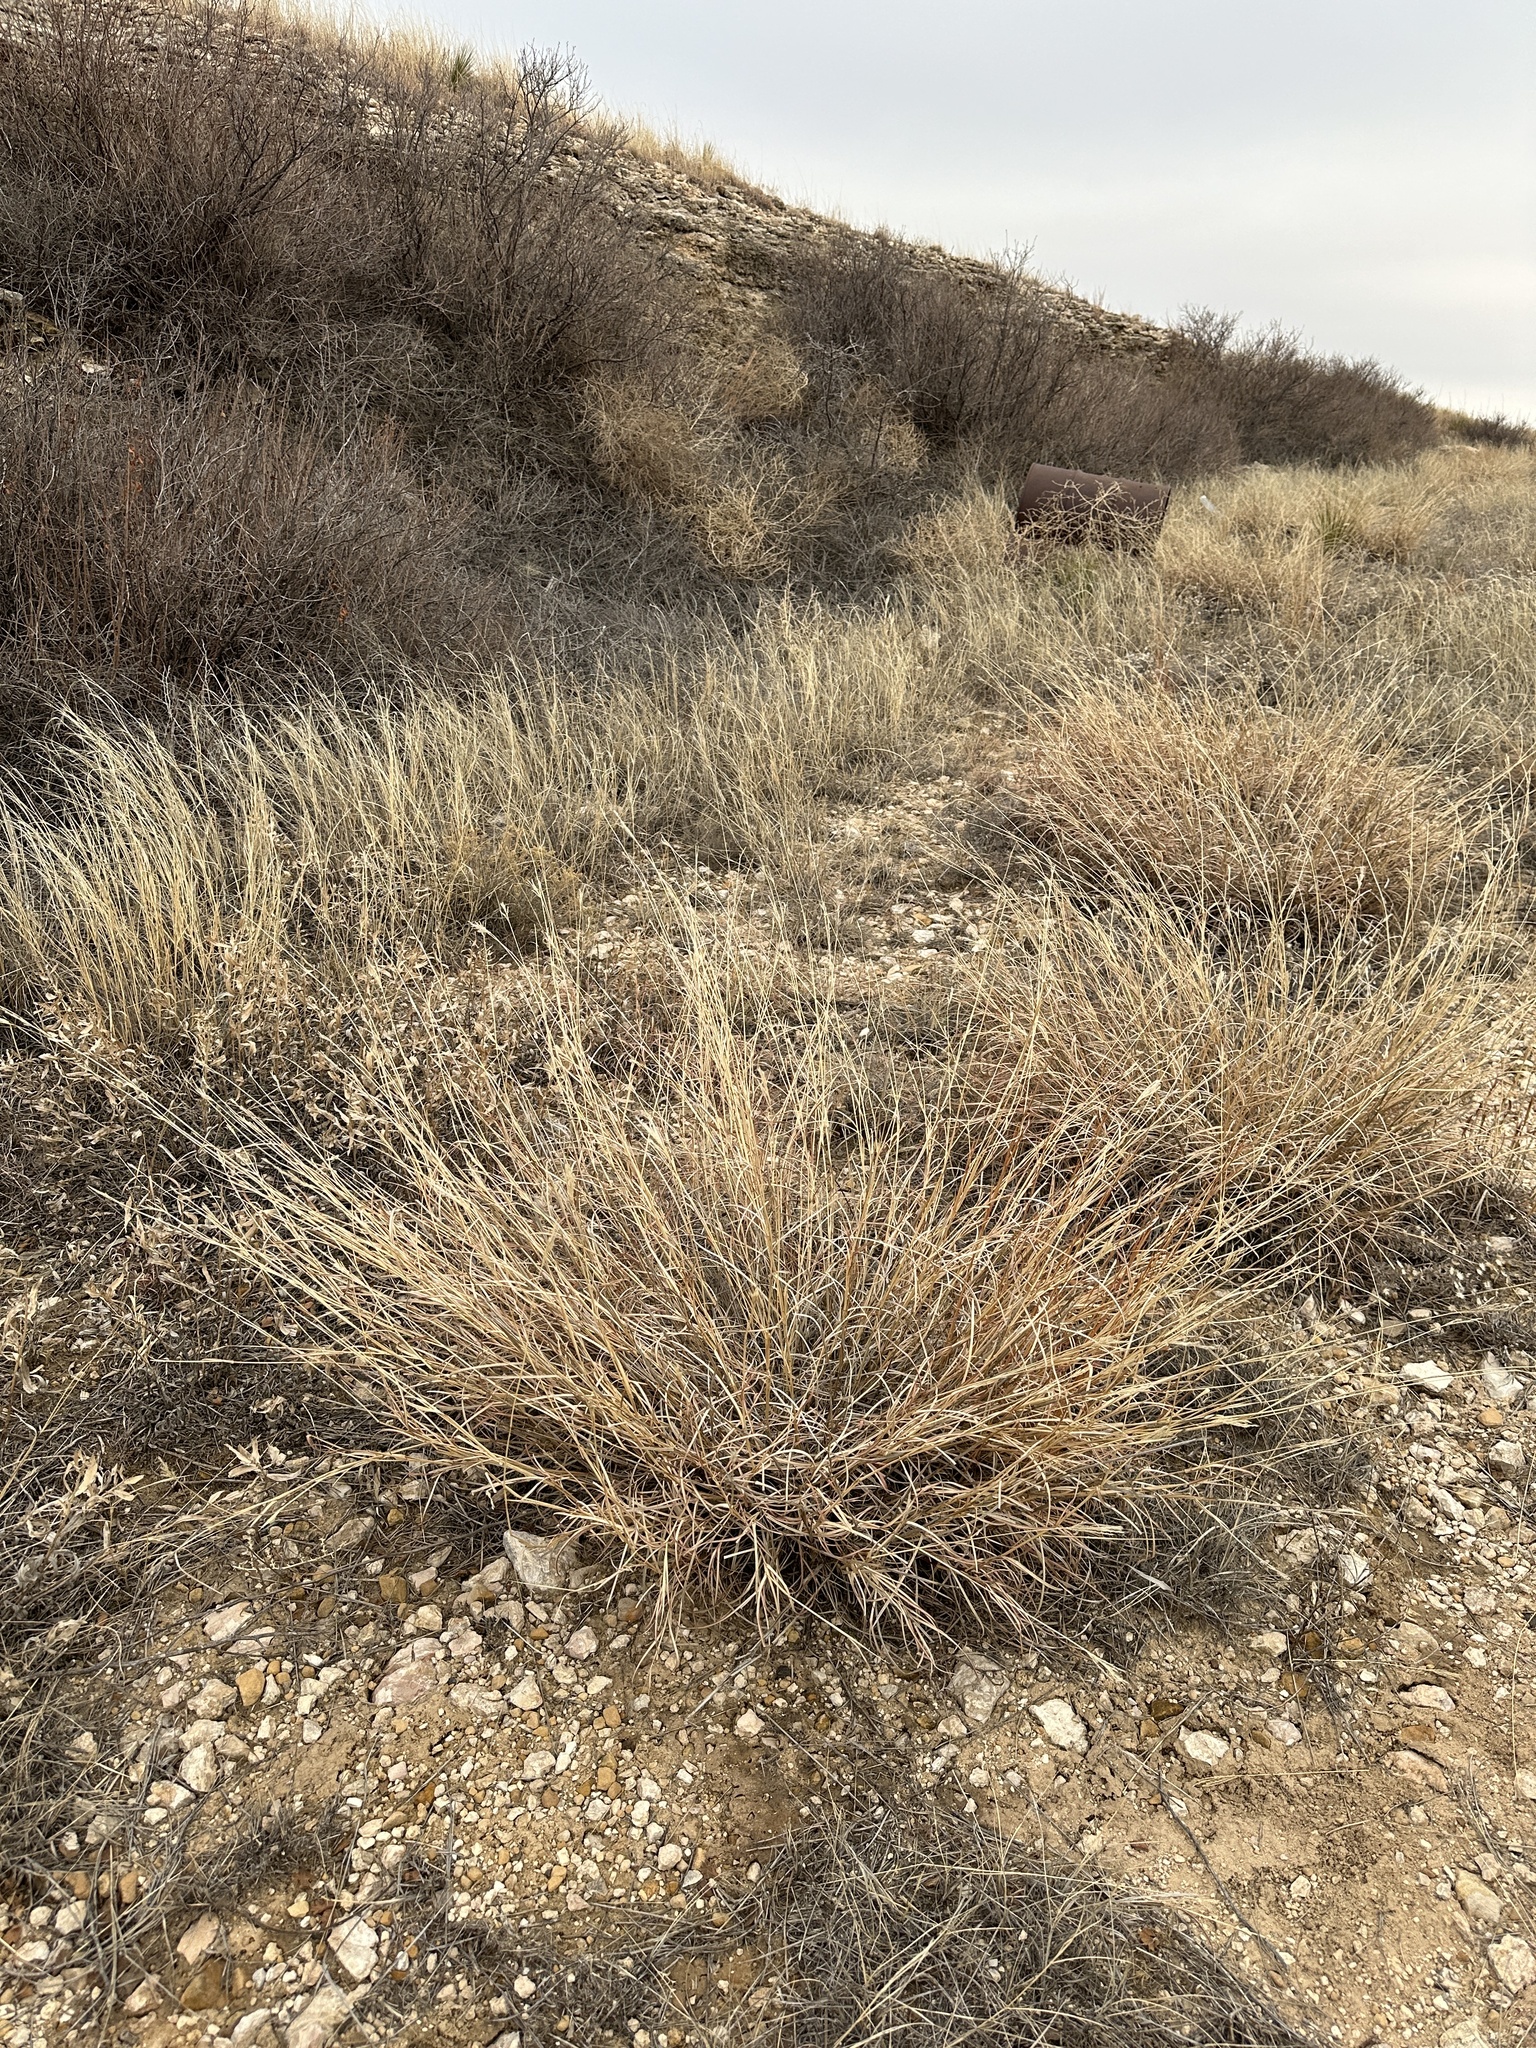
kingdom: Plantae
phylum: Tracheophyta
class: Liliopsida
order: Poales
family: Poaceae
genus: Bothriochloa
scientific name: Bothriochloa ischaemum
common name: Yellow bluestem
